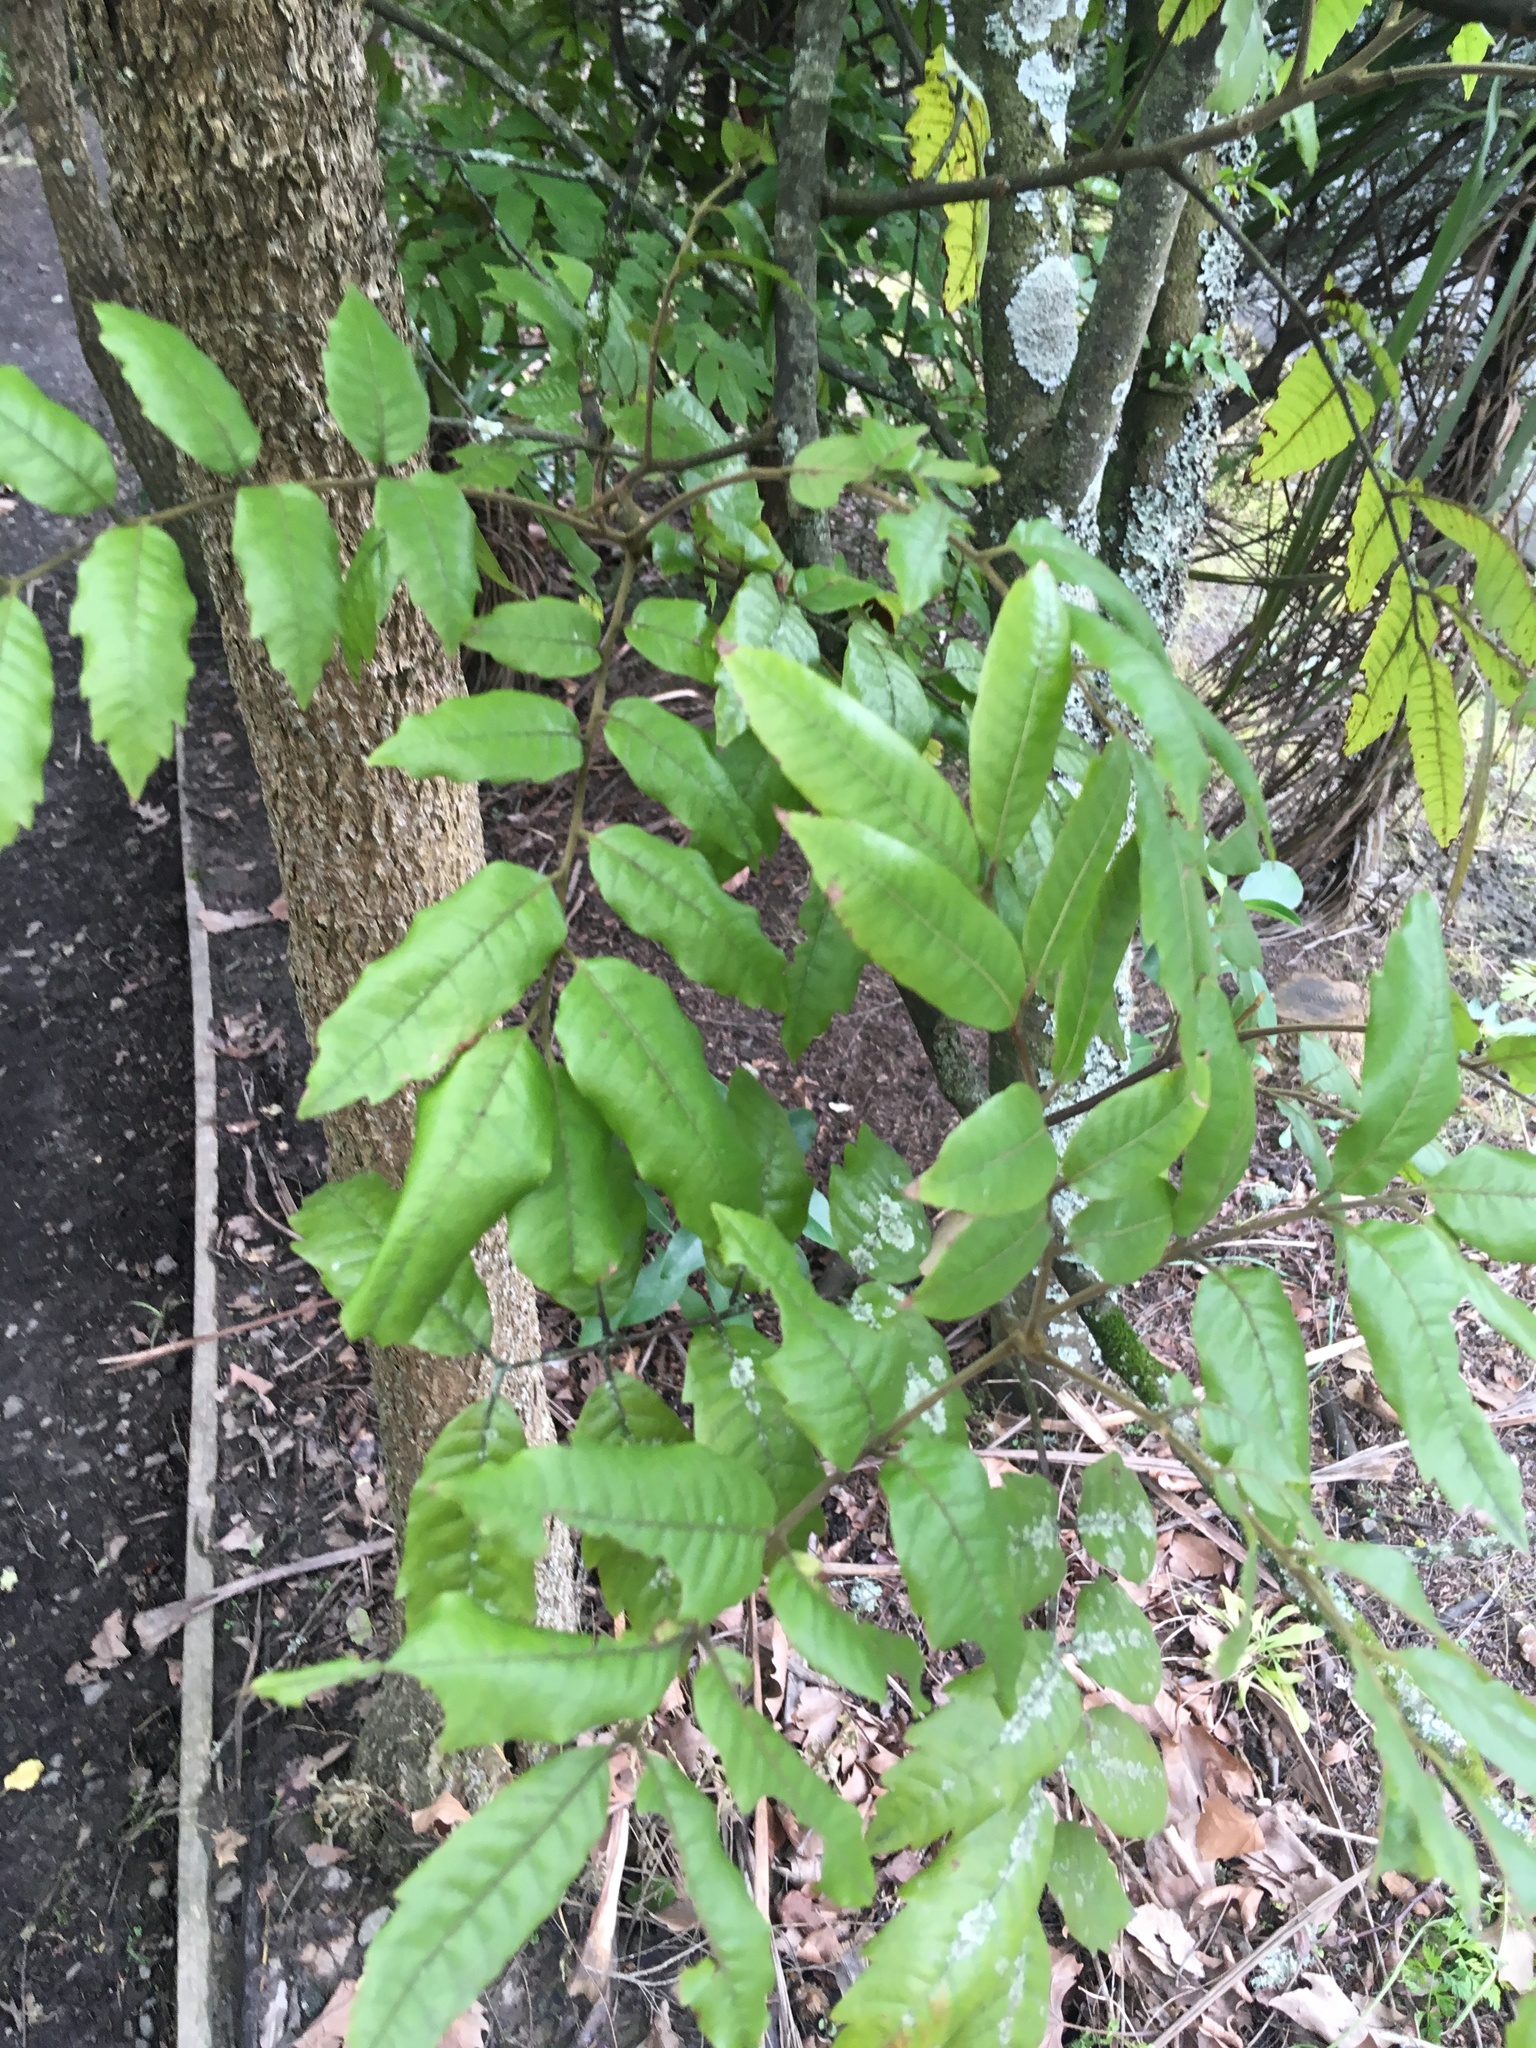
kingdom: Plantae
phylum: Tracheophyta
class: Magnoliopsida
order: Sapindales
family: Sapindaceae
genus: Alectryon
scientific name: Alectryon excelsus
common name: Three kings titoki
